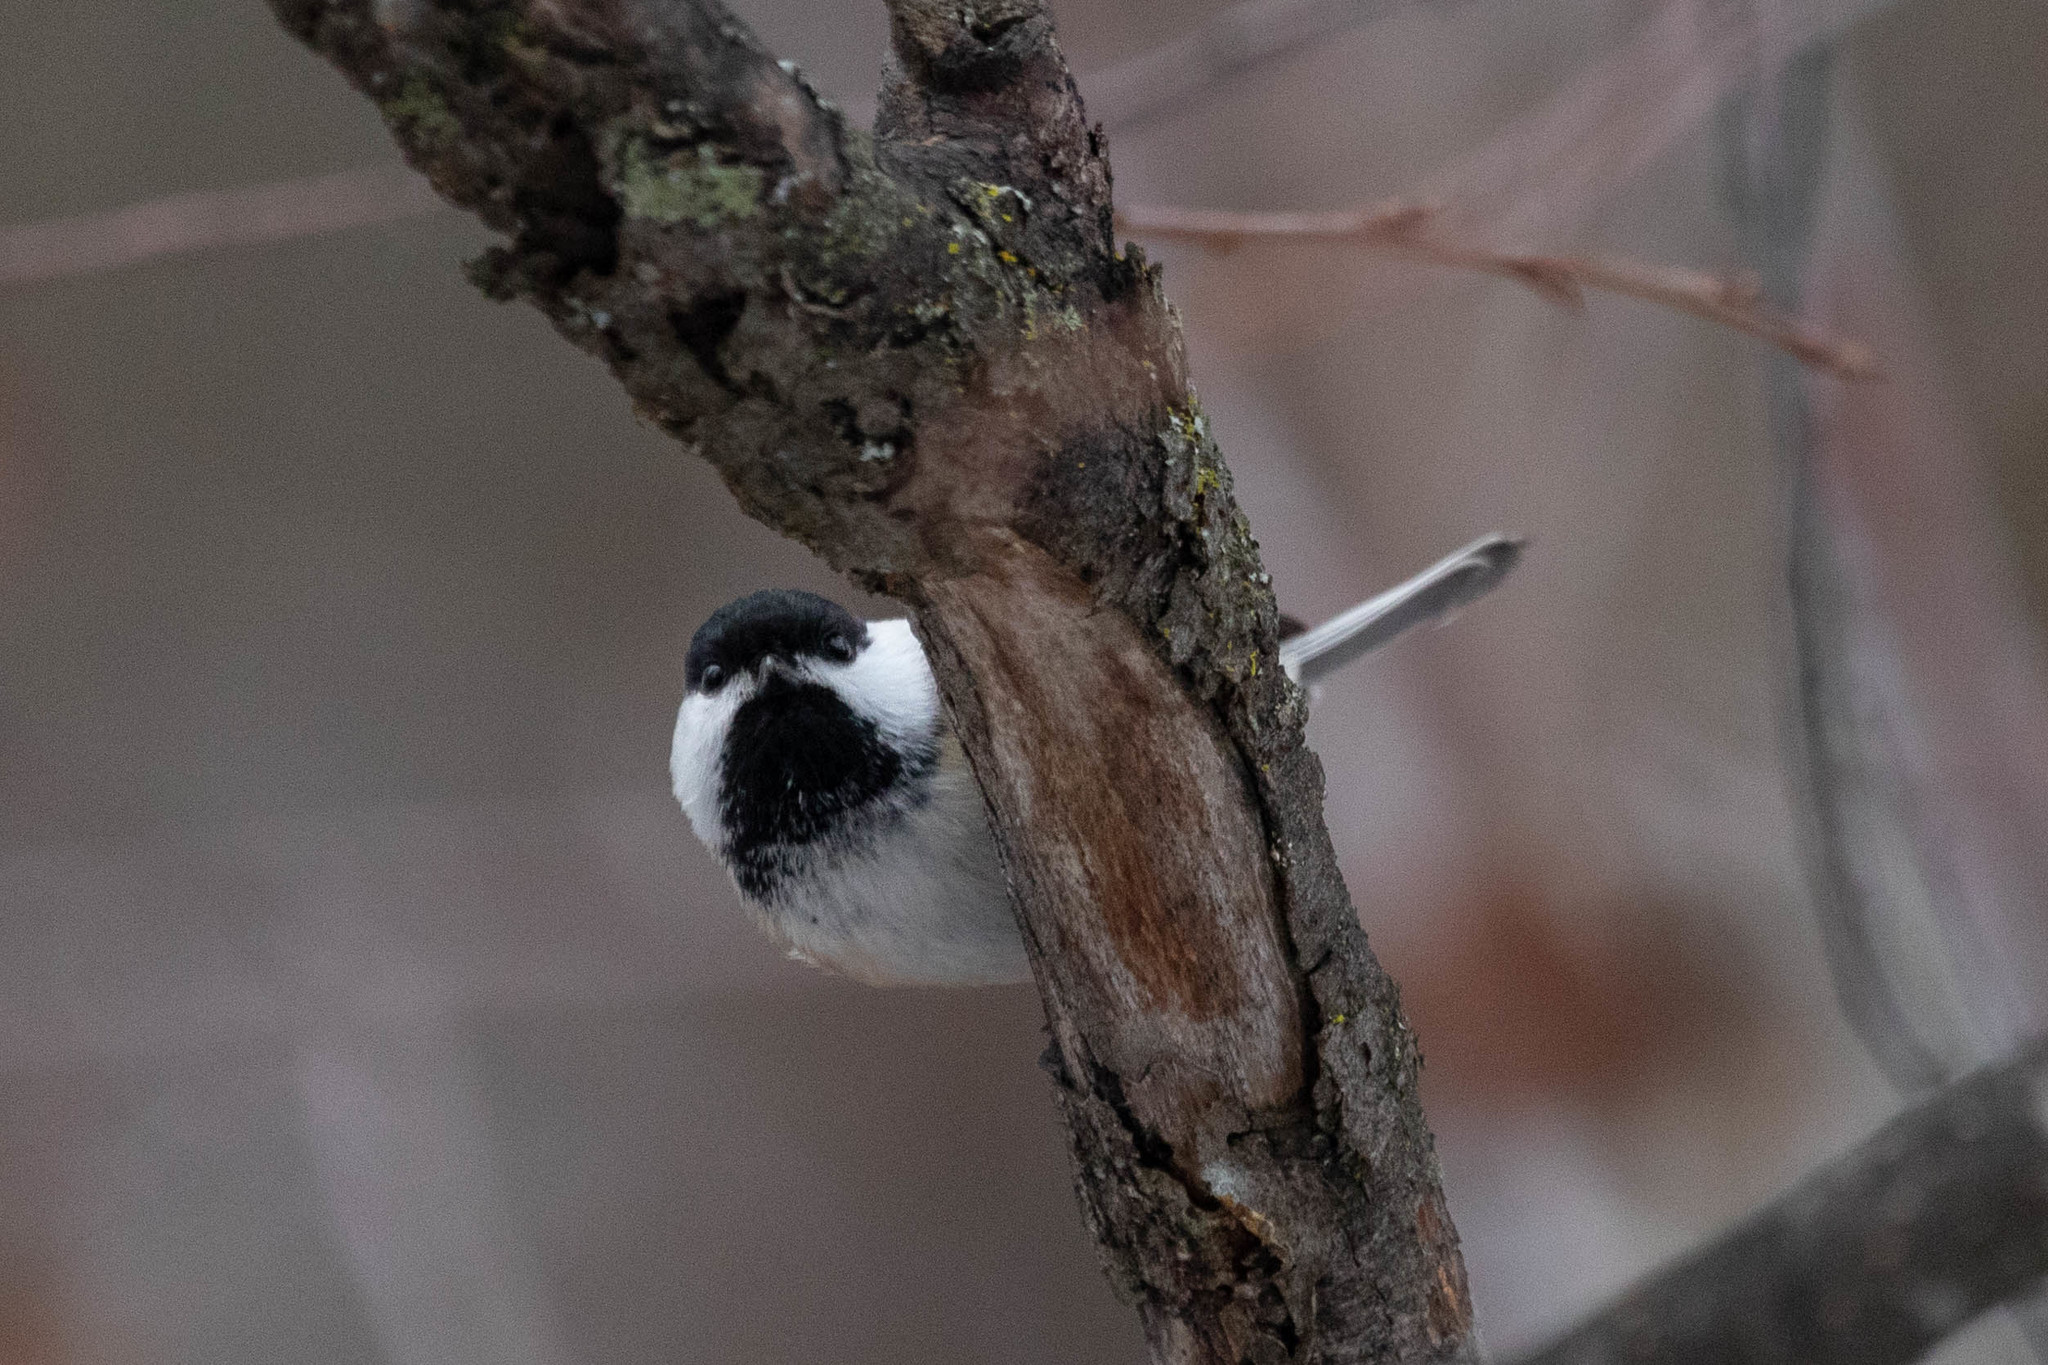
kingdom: Animalia
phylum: Chordata
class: Aves
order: Passeriformes
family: Paridae
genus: Poecile
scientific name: Poecile atricapillus
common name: Black-capped chickadee
